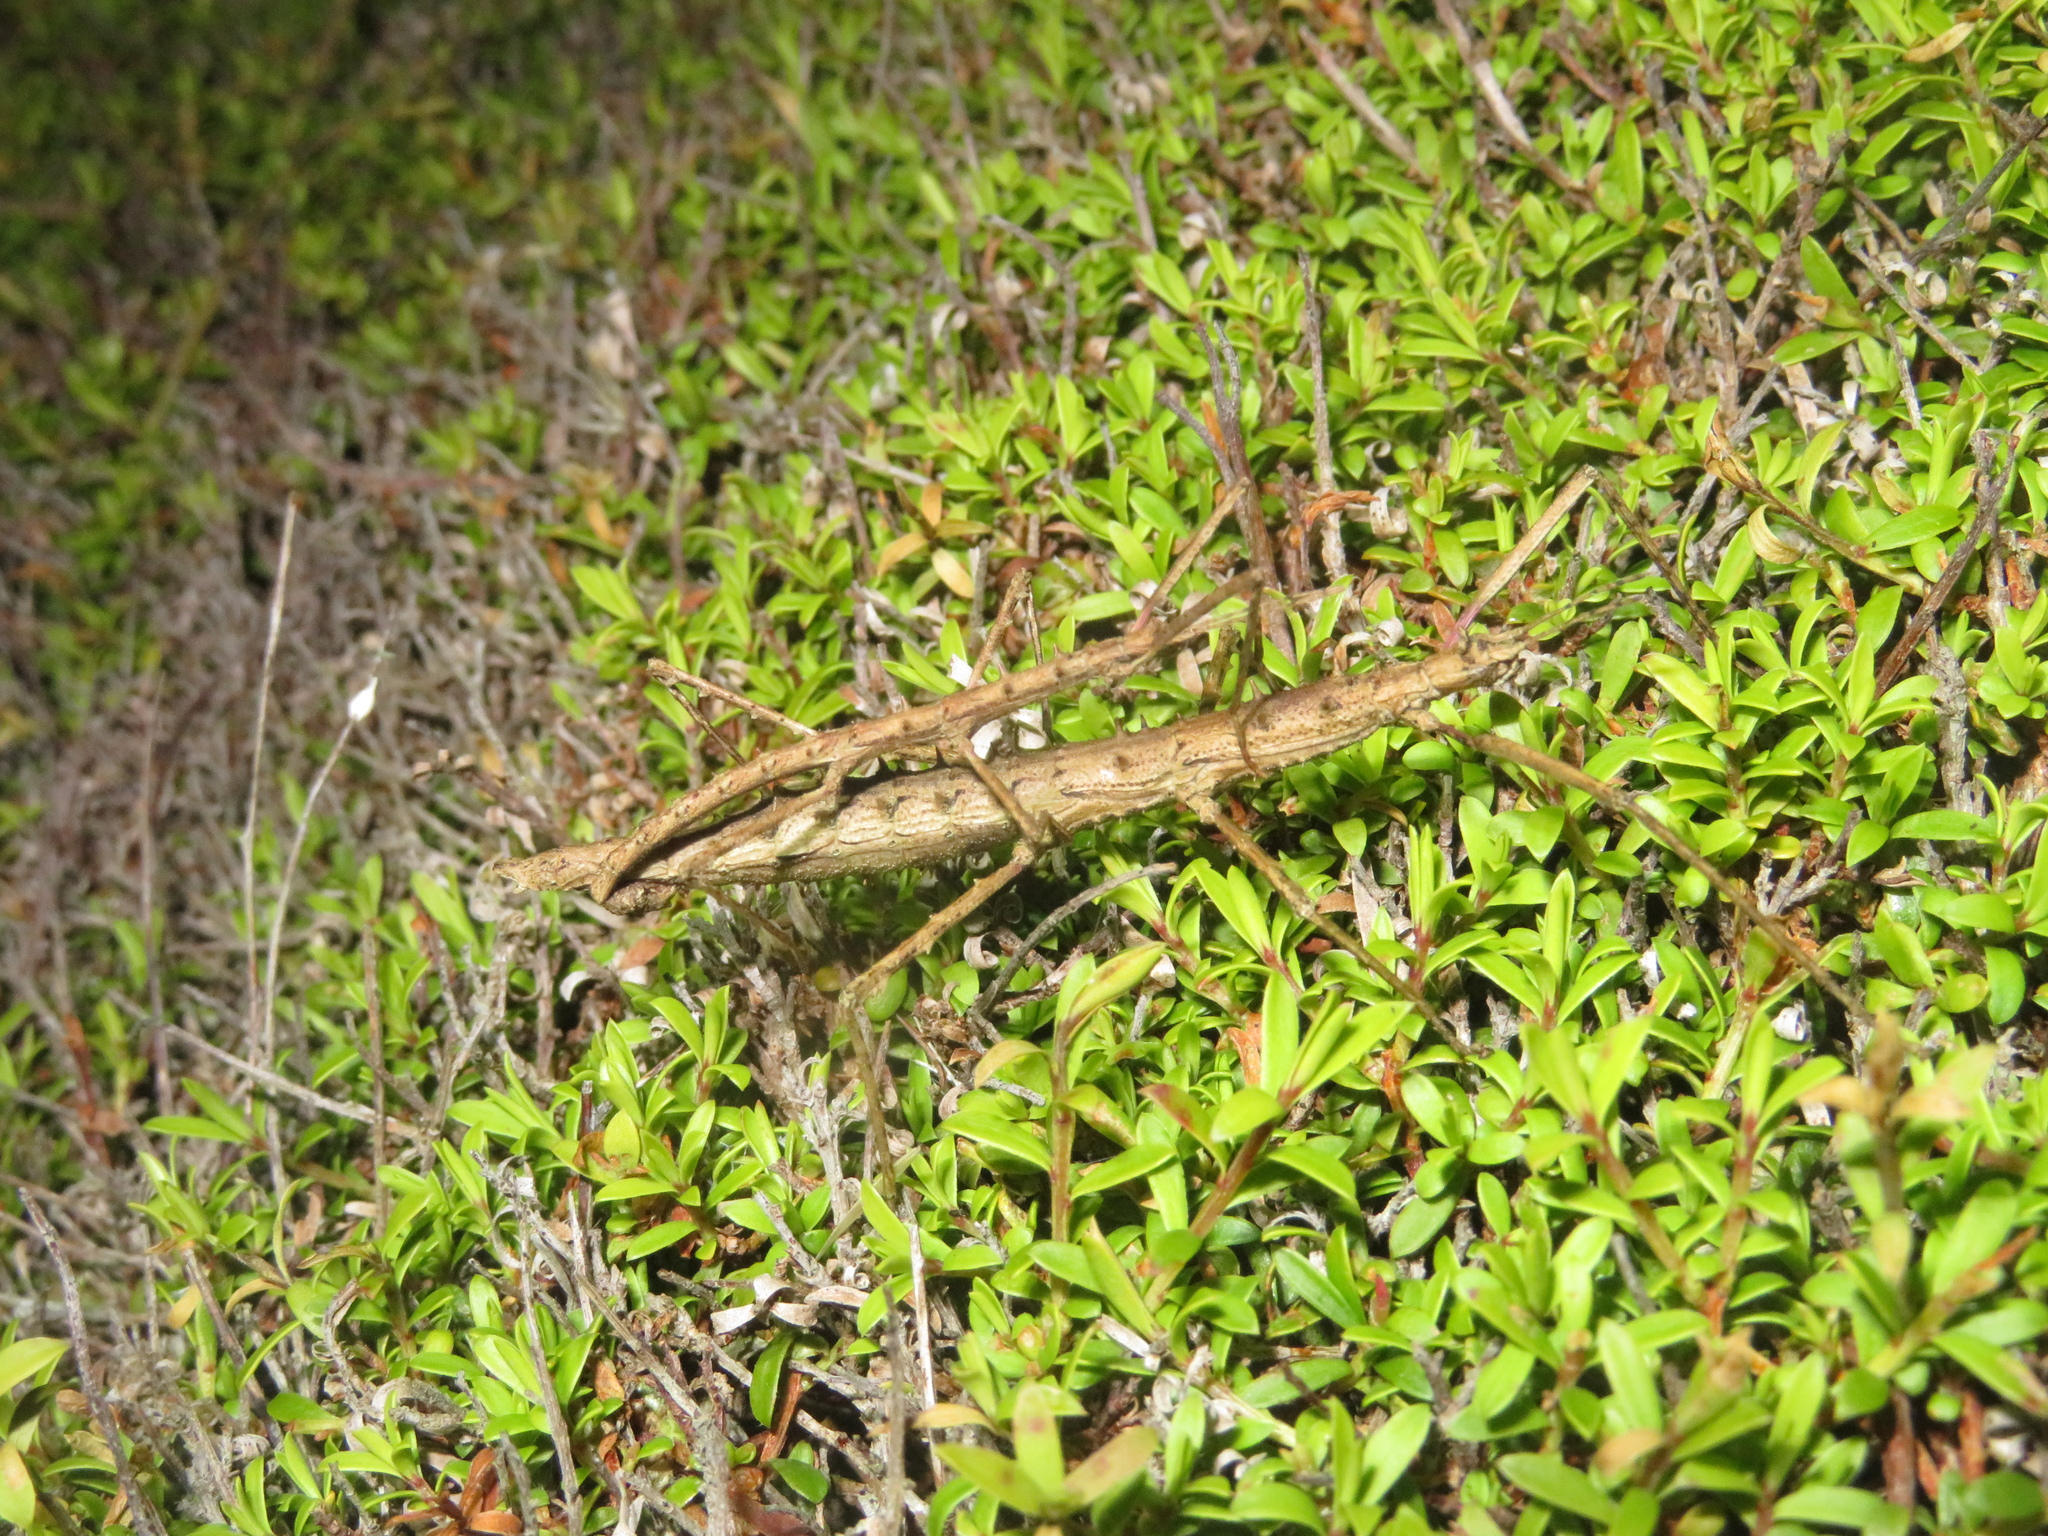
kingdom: Animalia
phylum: Arthropoda
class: Insecta
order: Phasmida
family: Phasmatidae
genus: Micrarchus
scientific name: Micrarchus hystriculeus
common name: The lesser spiny stick insect
